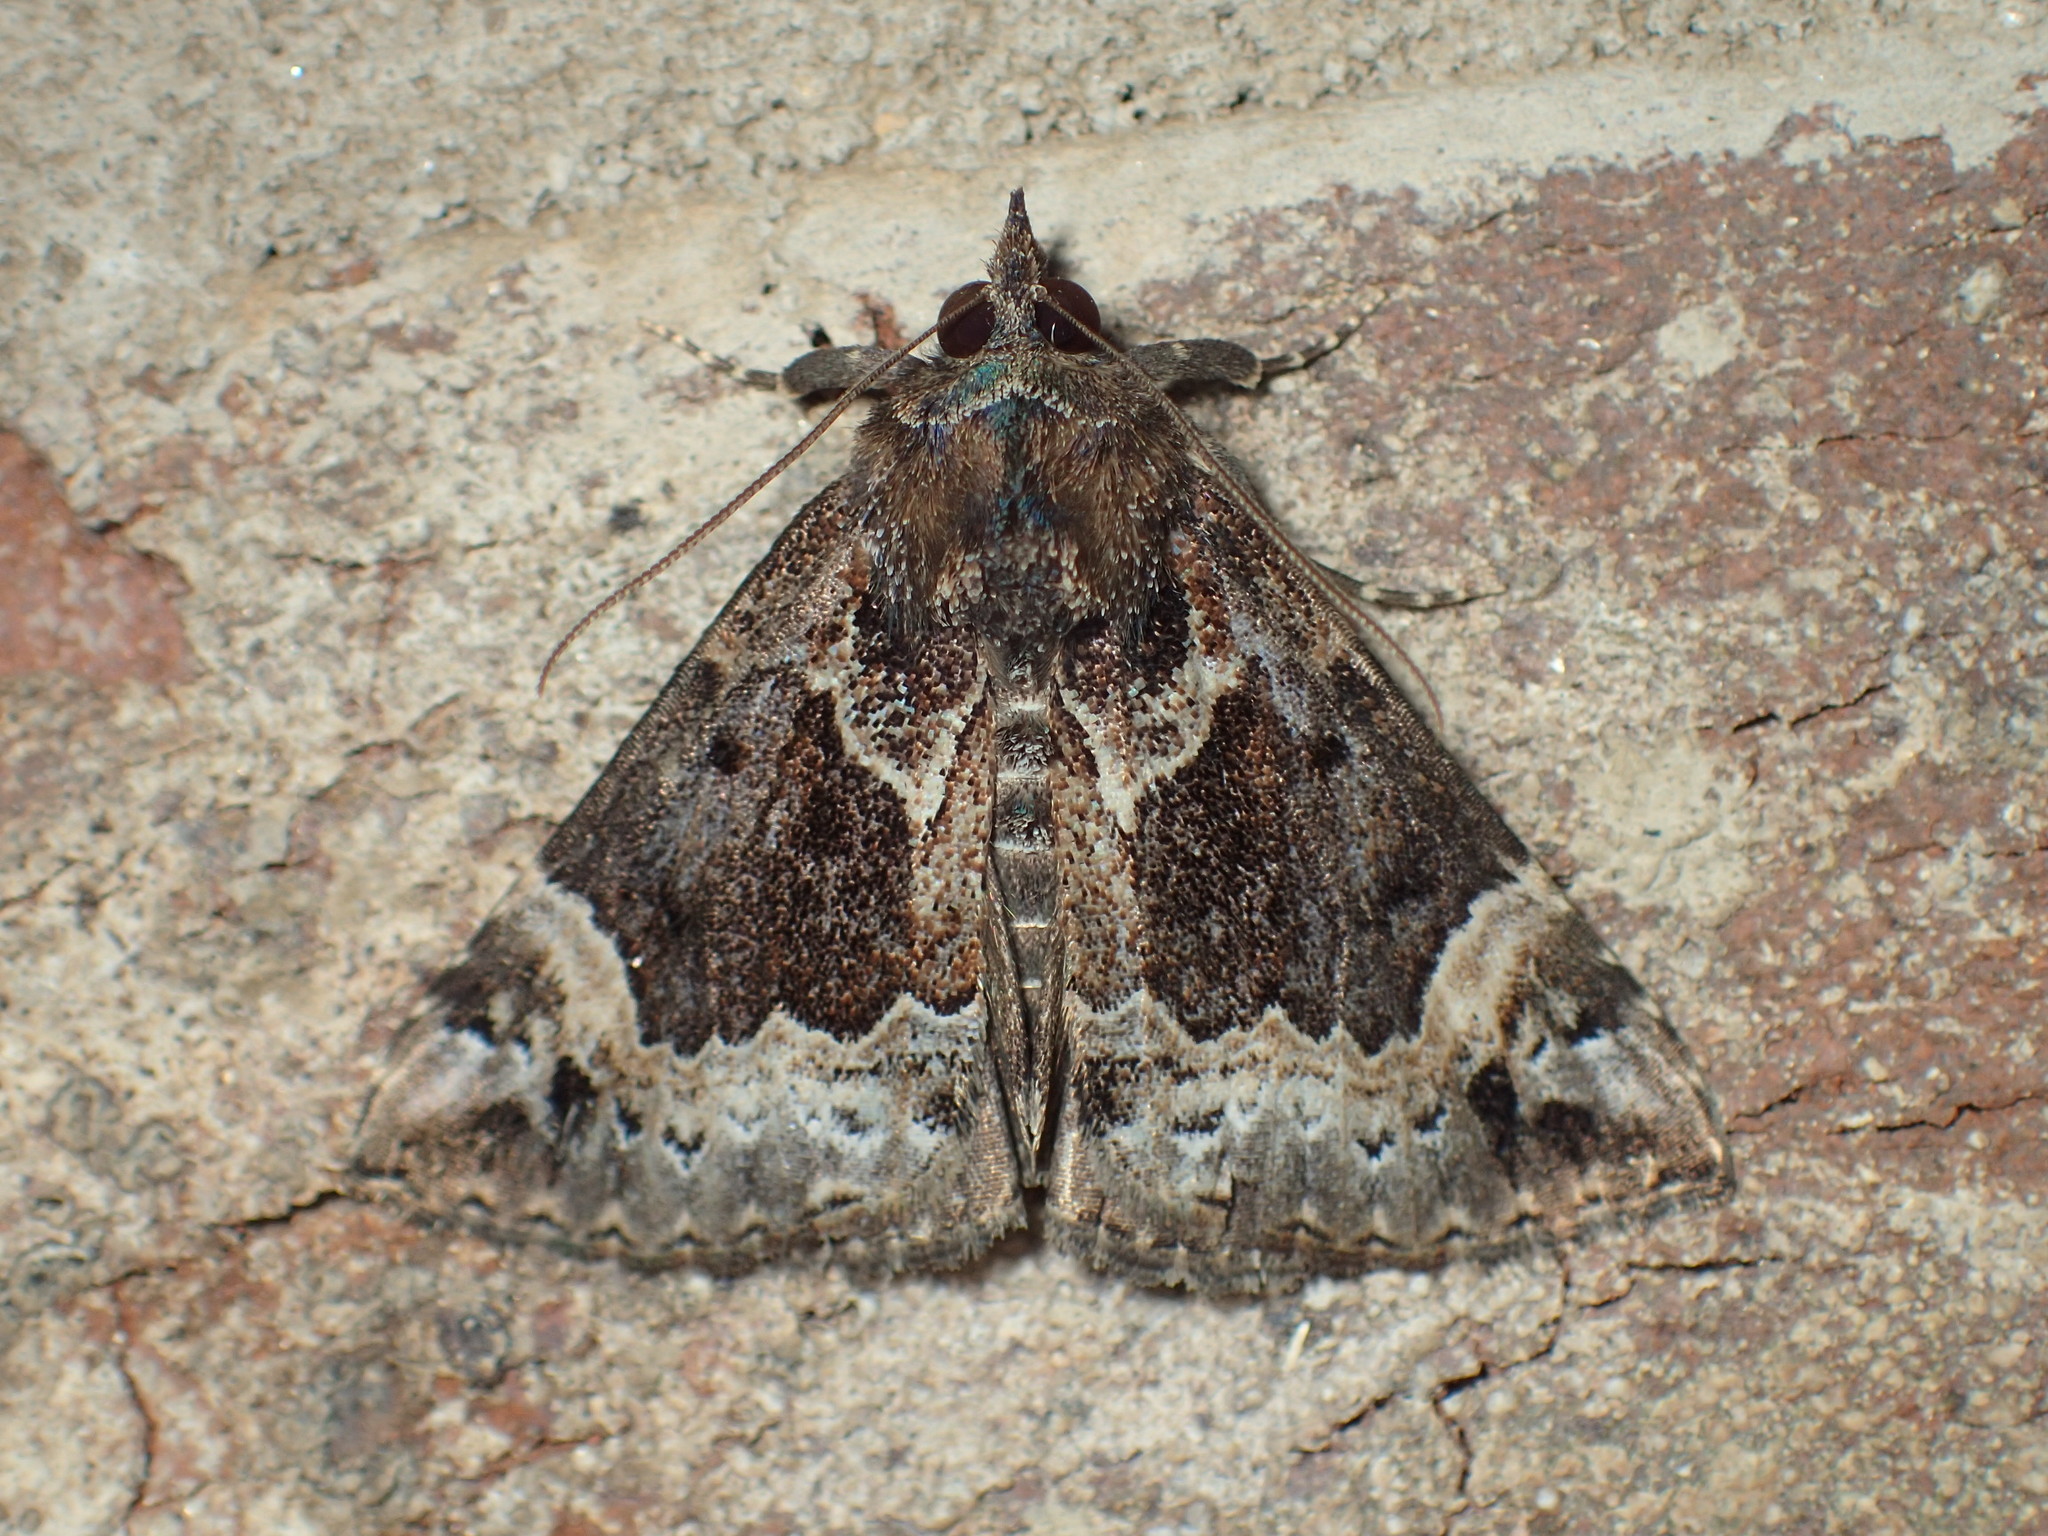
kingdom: Animalia
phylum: Arthropoda
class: Insecta
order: Lepidoptera
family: Erebidae
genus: Hypena
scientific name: Hypena palparia
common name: Mottled bomolocha moth
